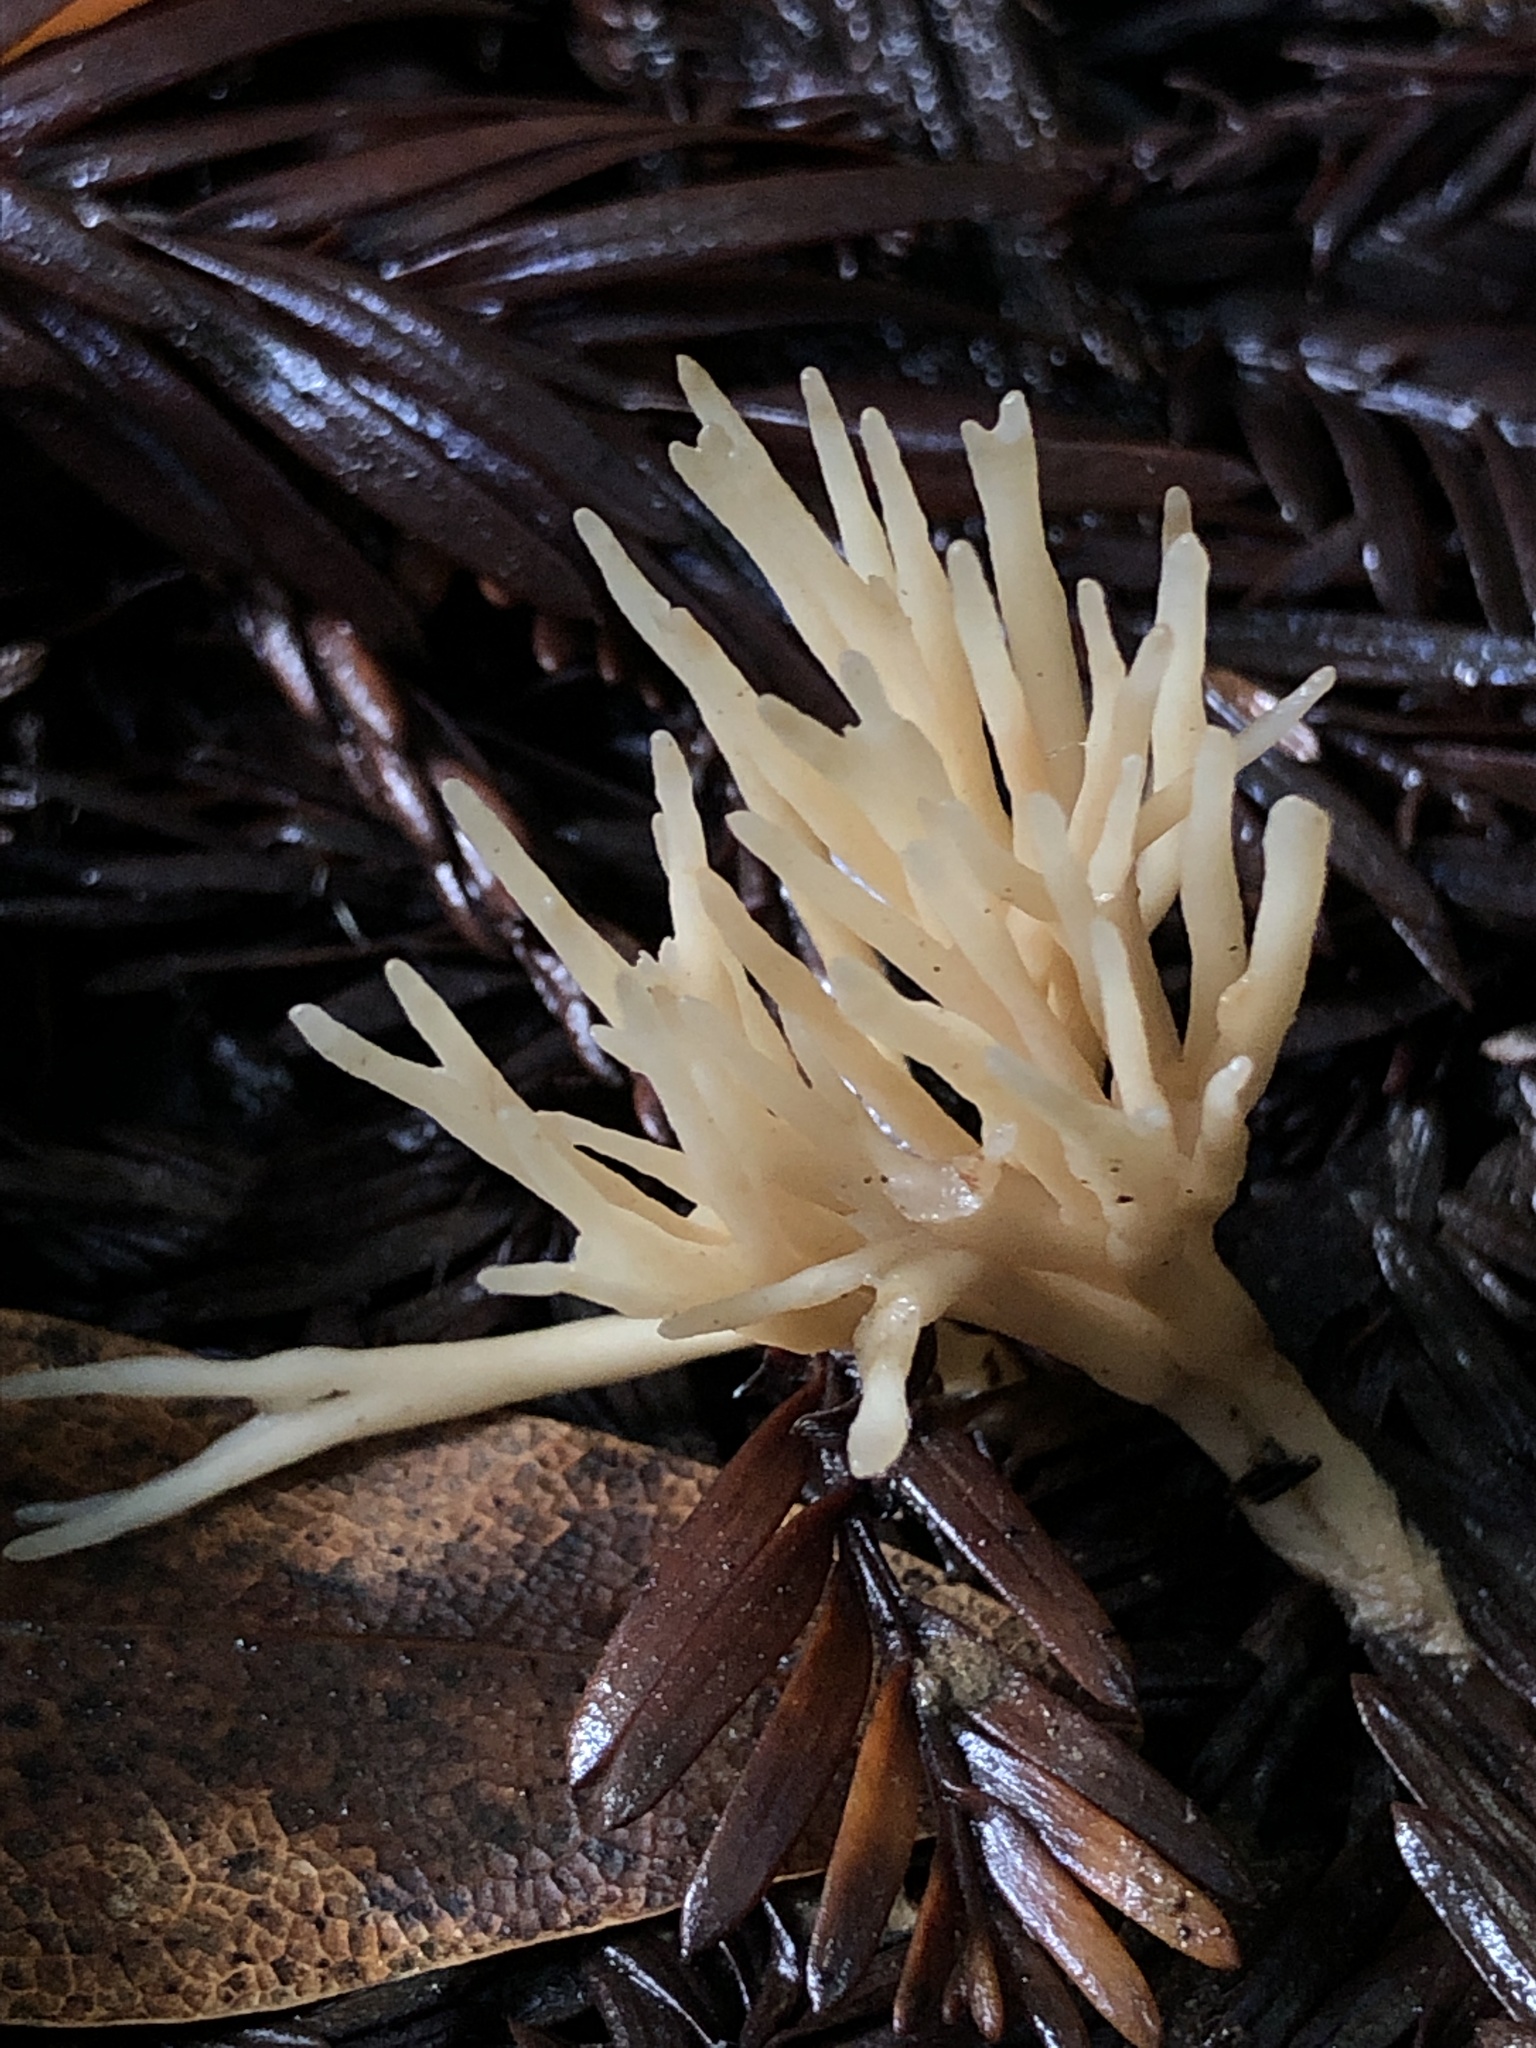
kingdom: Fungi
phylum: Basidiomycota
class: Agaricomycetes
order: Tremellodendropsidales
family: Tremellodendropsidaceae
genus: Tremellodendropsis
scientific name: Tremellodendropsis tuberosa
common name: Ashen coral
